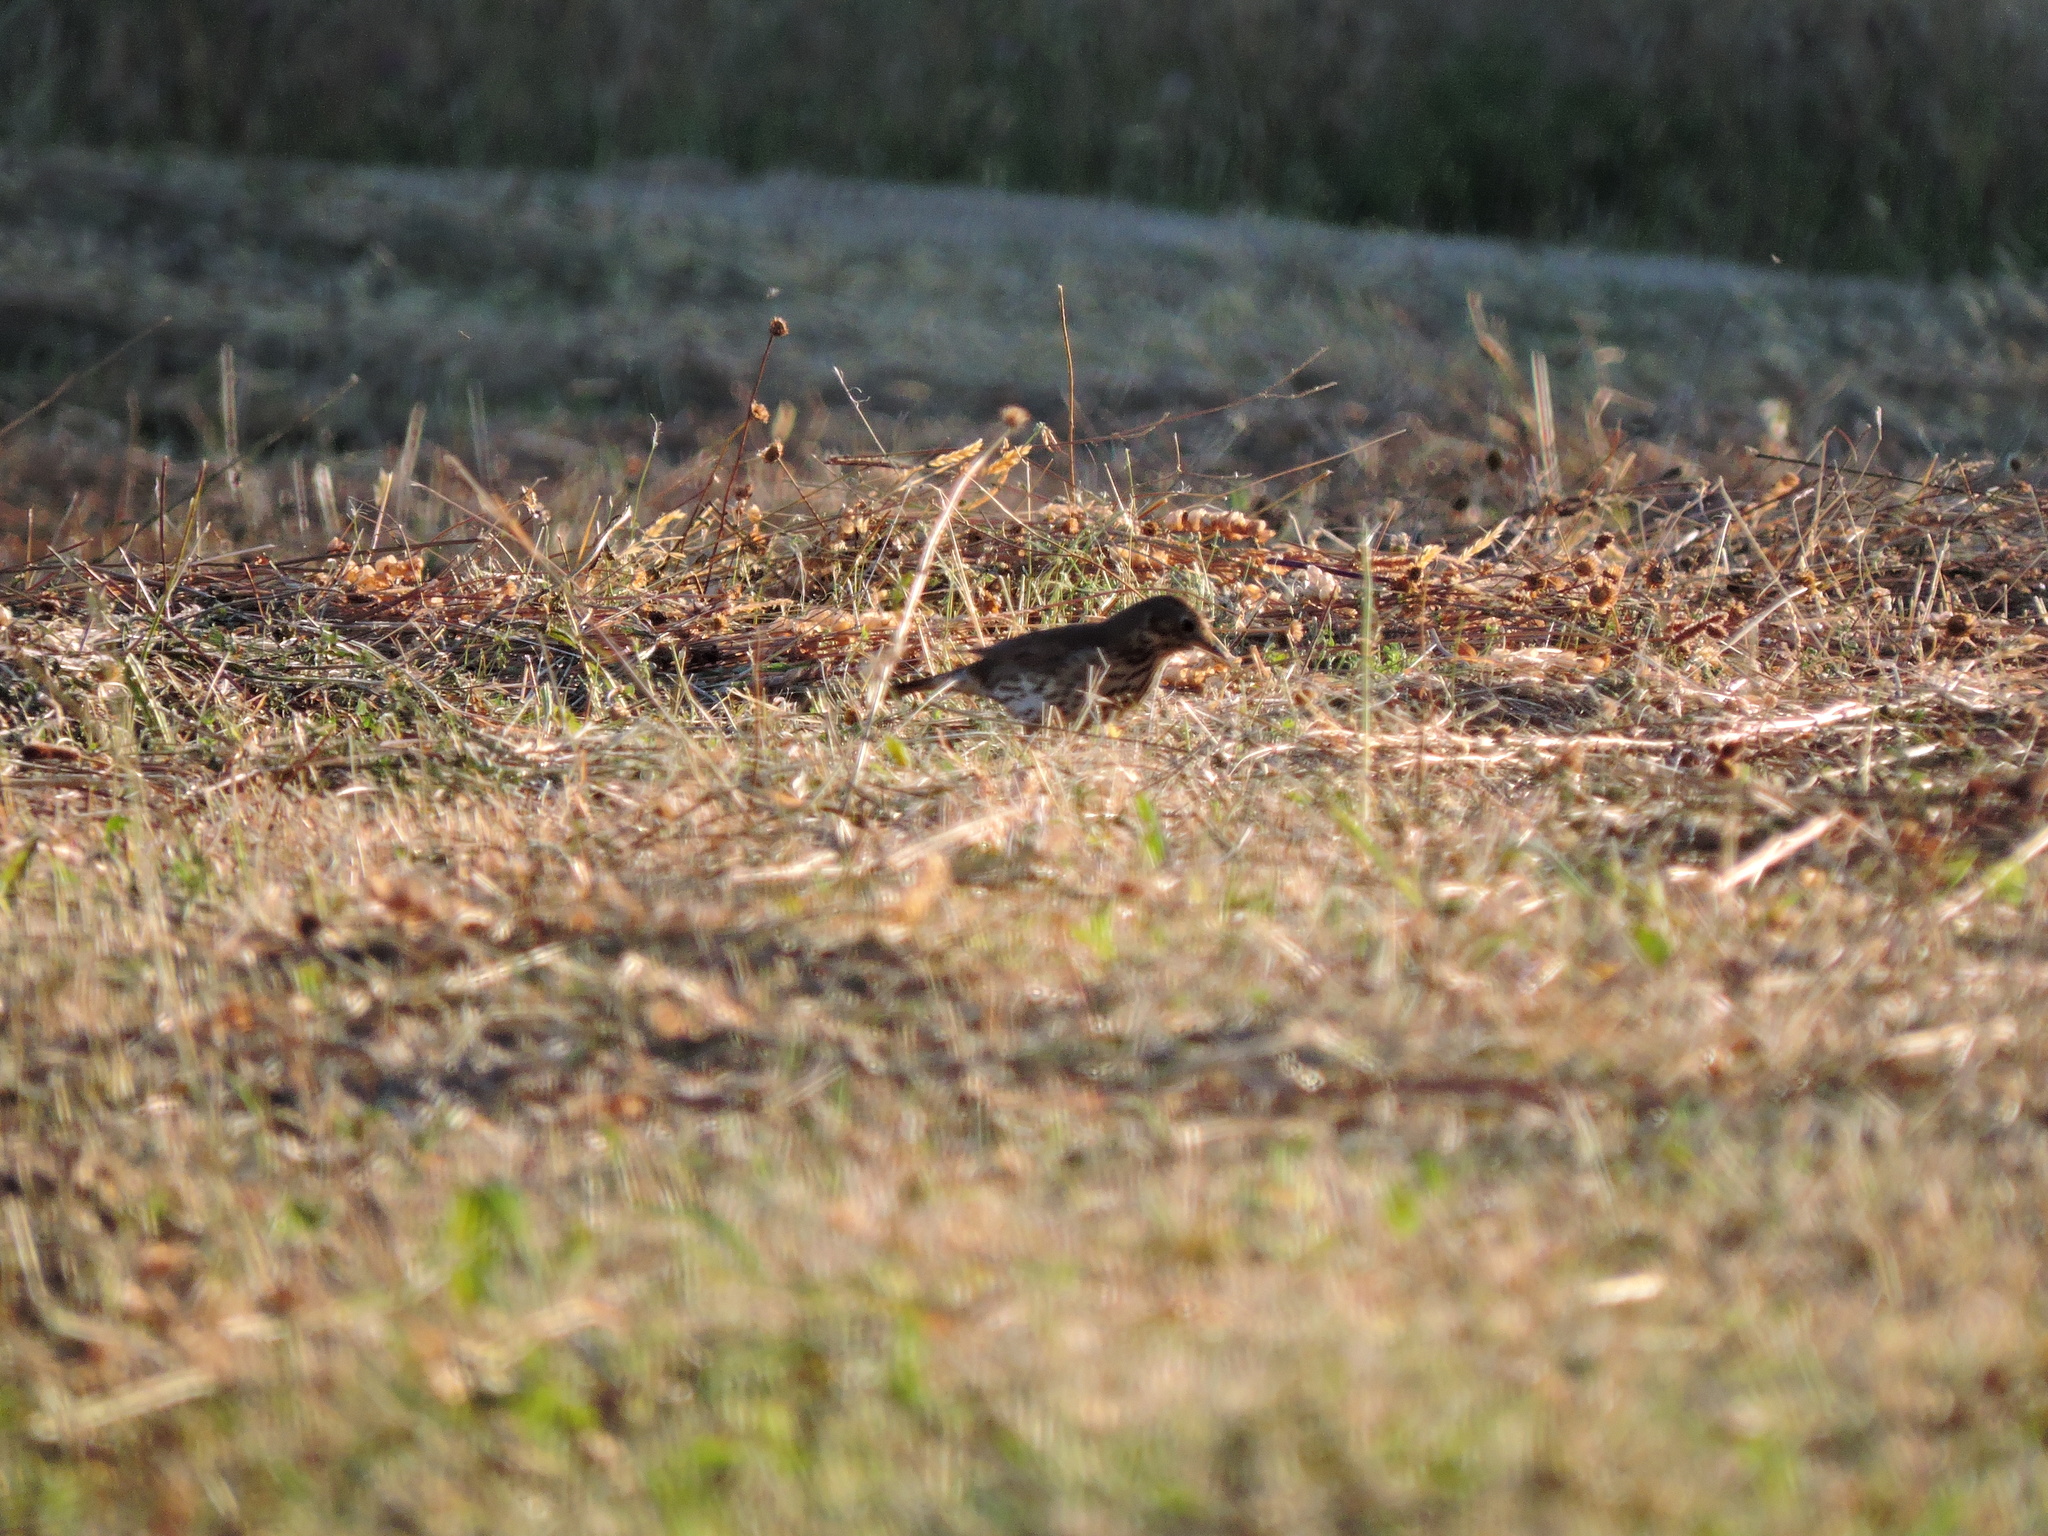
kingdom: Animalia
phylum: Chordata
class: Aves
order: Passeriformes
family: Turdidae
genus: Turdus
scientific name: Turdus philomelos
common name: Song thrush
